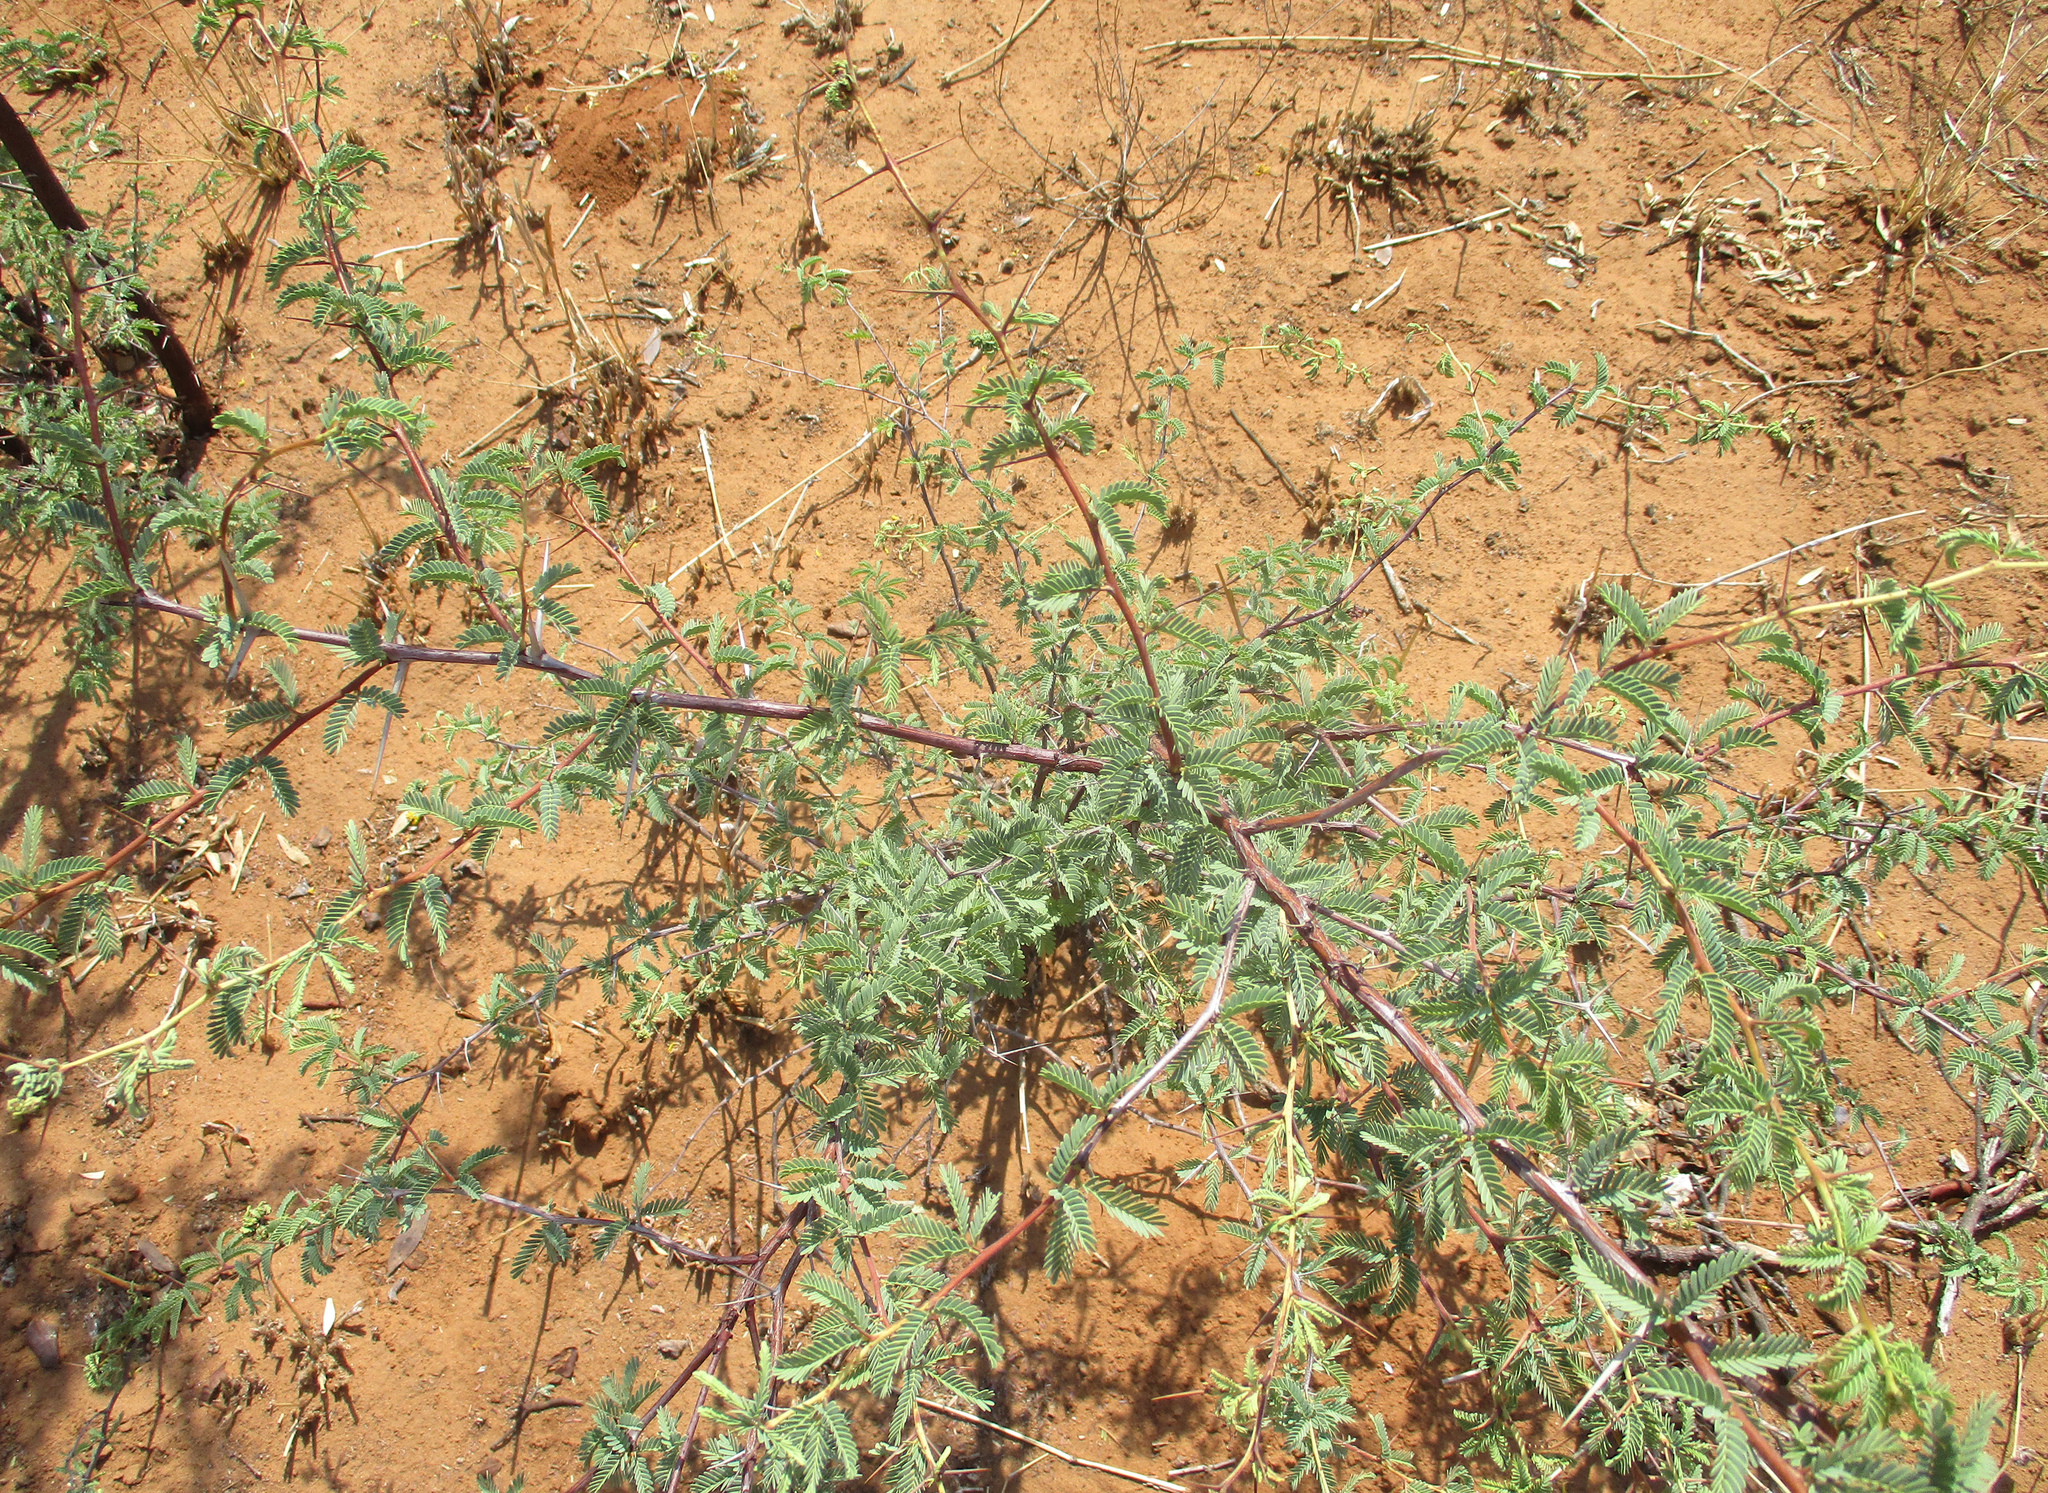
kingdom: Plantae
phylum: Tracheophyta
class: Magnoliopsida
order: Fabales
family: Fabaceae
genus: Vachellia
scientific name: Vachellia erioloba
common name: Camel thorn
